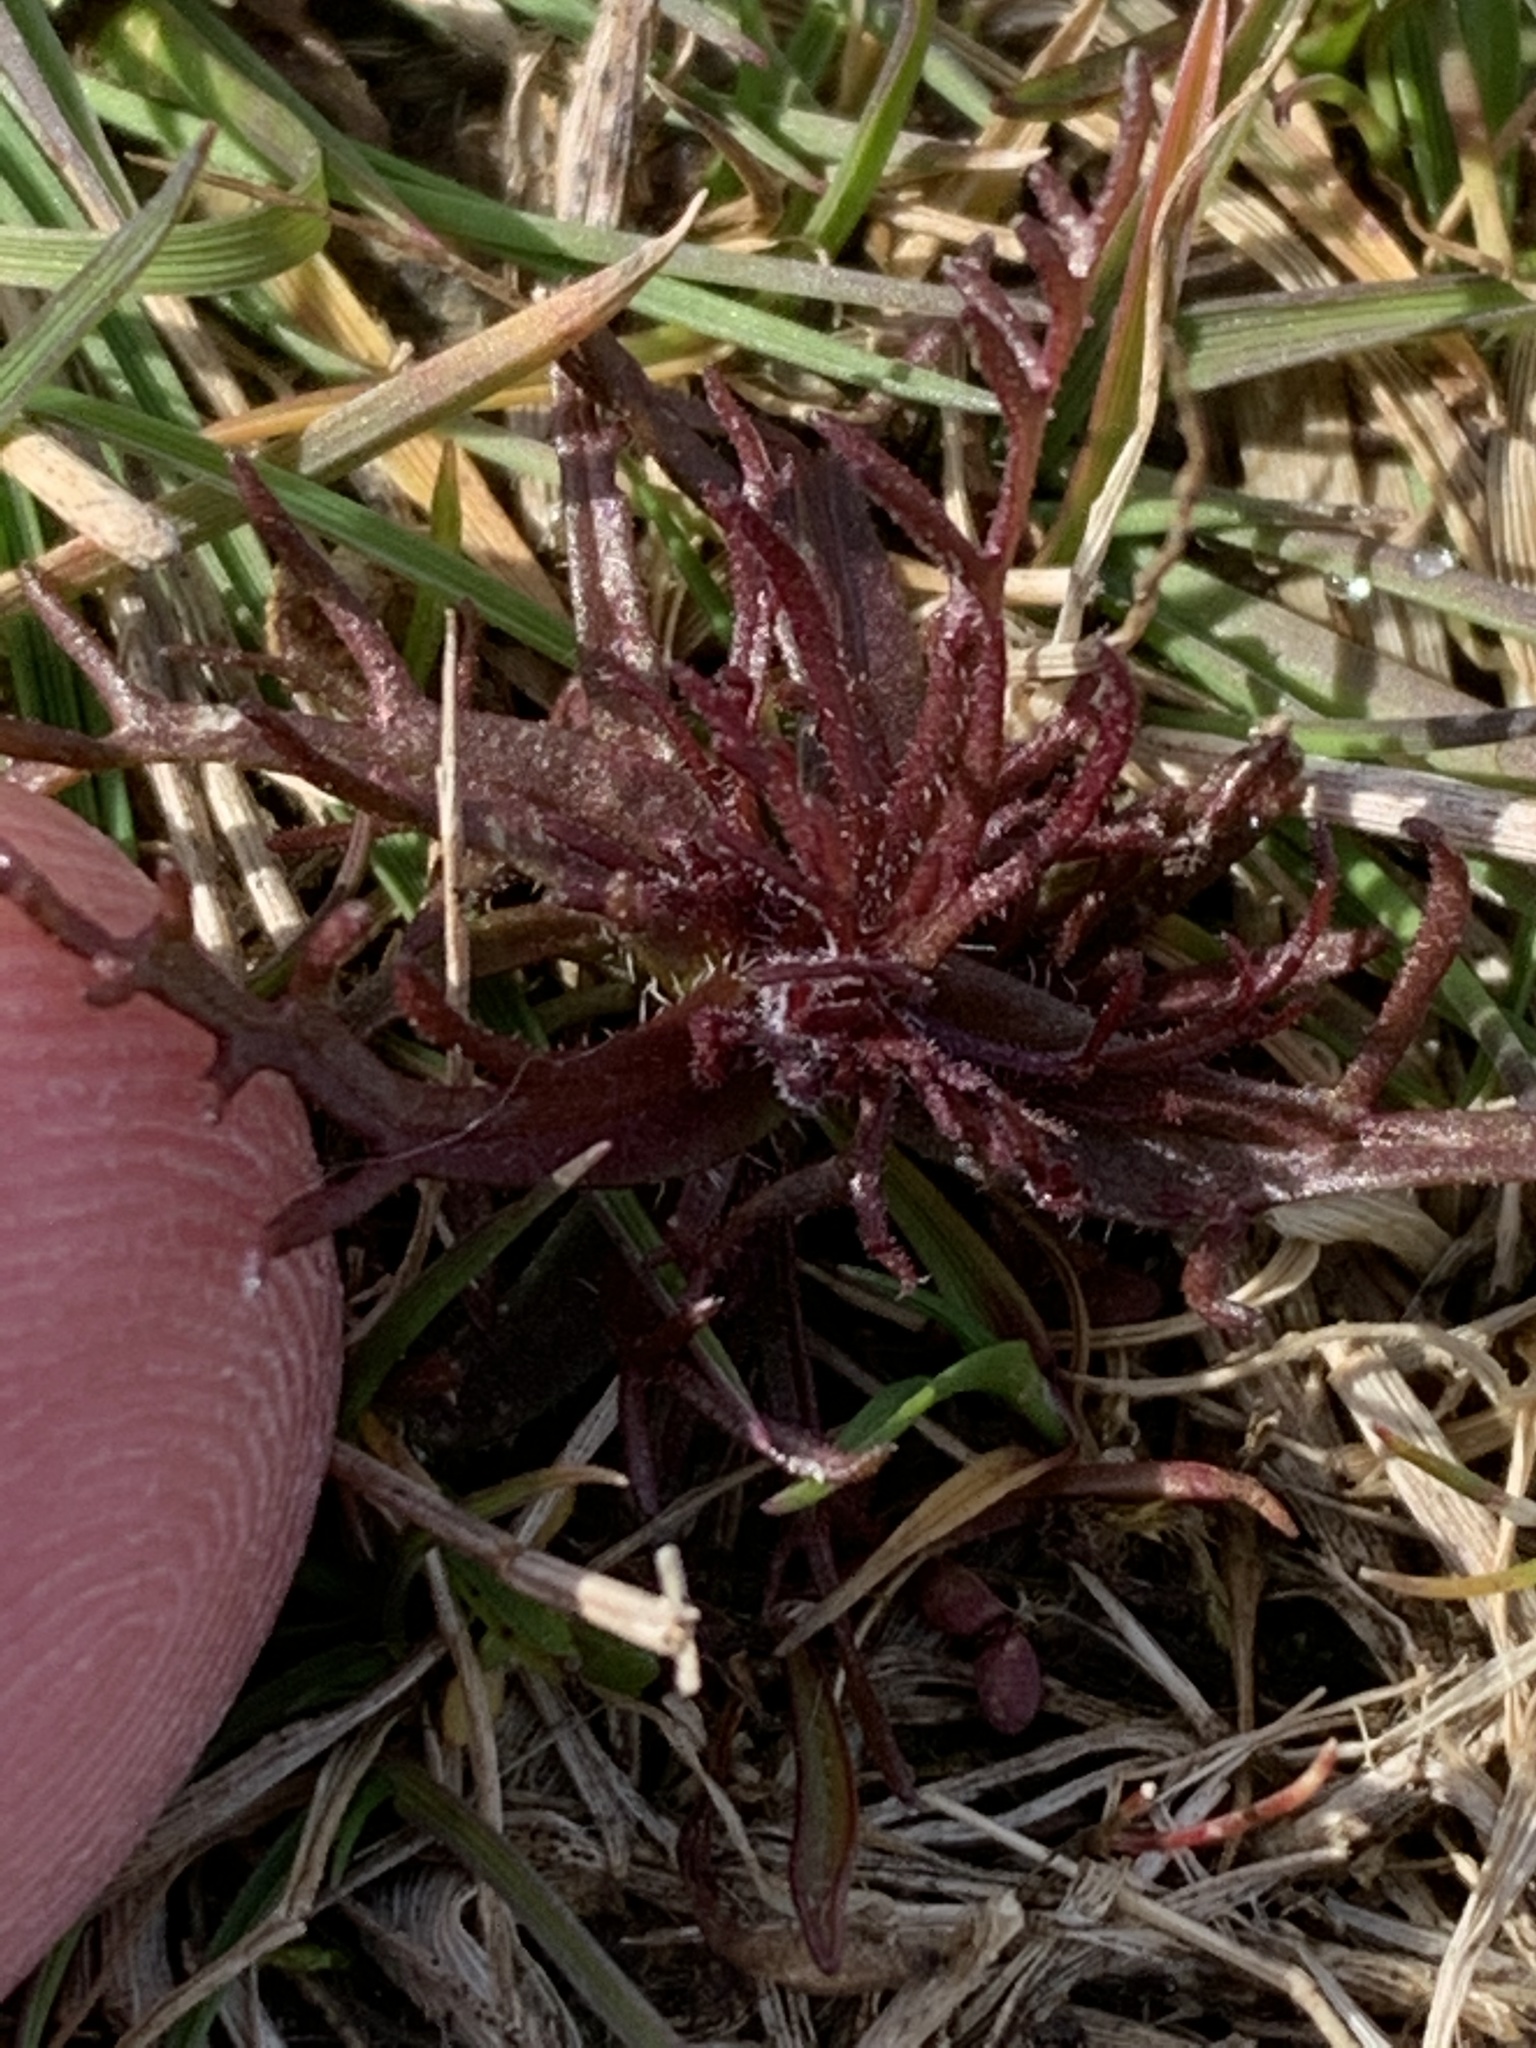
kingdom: Plantae
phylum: Tracheophyta
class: Magnoliopsida
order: Lamiales
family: Orobanchaceae
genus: Triphysaria
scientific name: Triphysaria pusilla
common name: Dwarf false owl-clover
